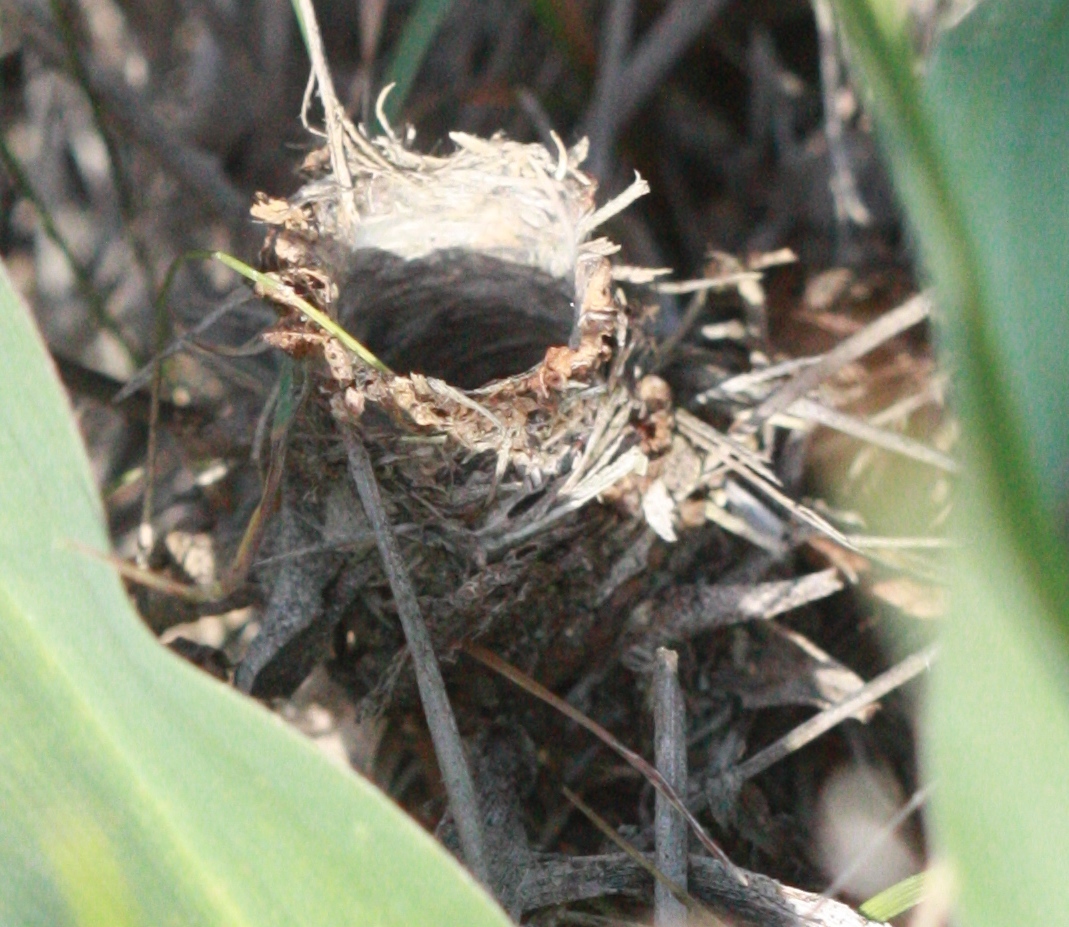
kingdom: Animalia
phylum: Arthropoda
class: Arachnida
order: Araneae
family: Antrodiaetidae
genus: Atypoides
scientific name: Atypoides riversi
